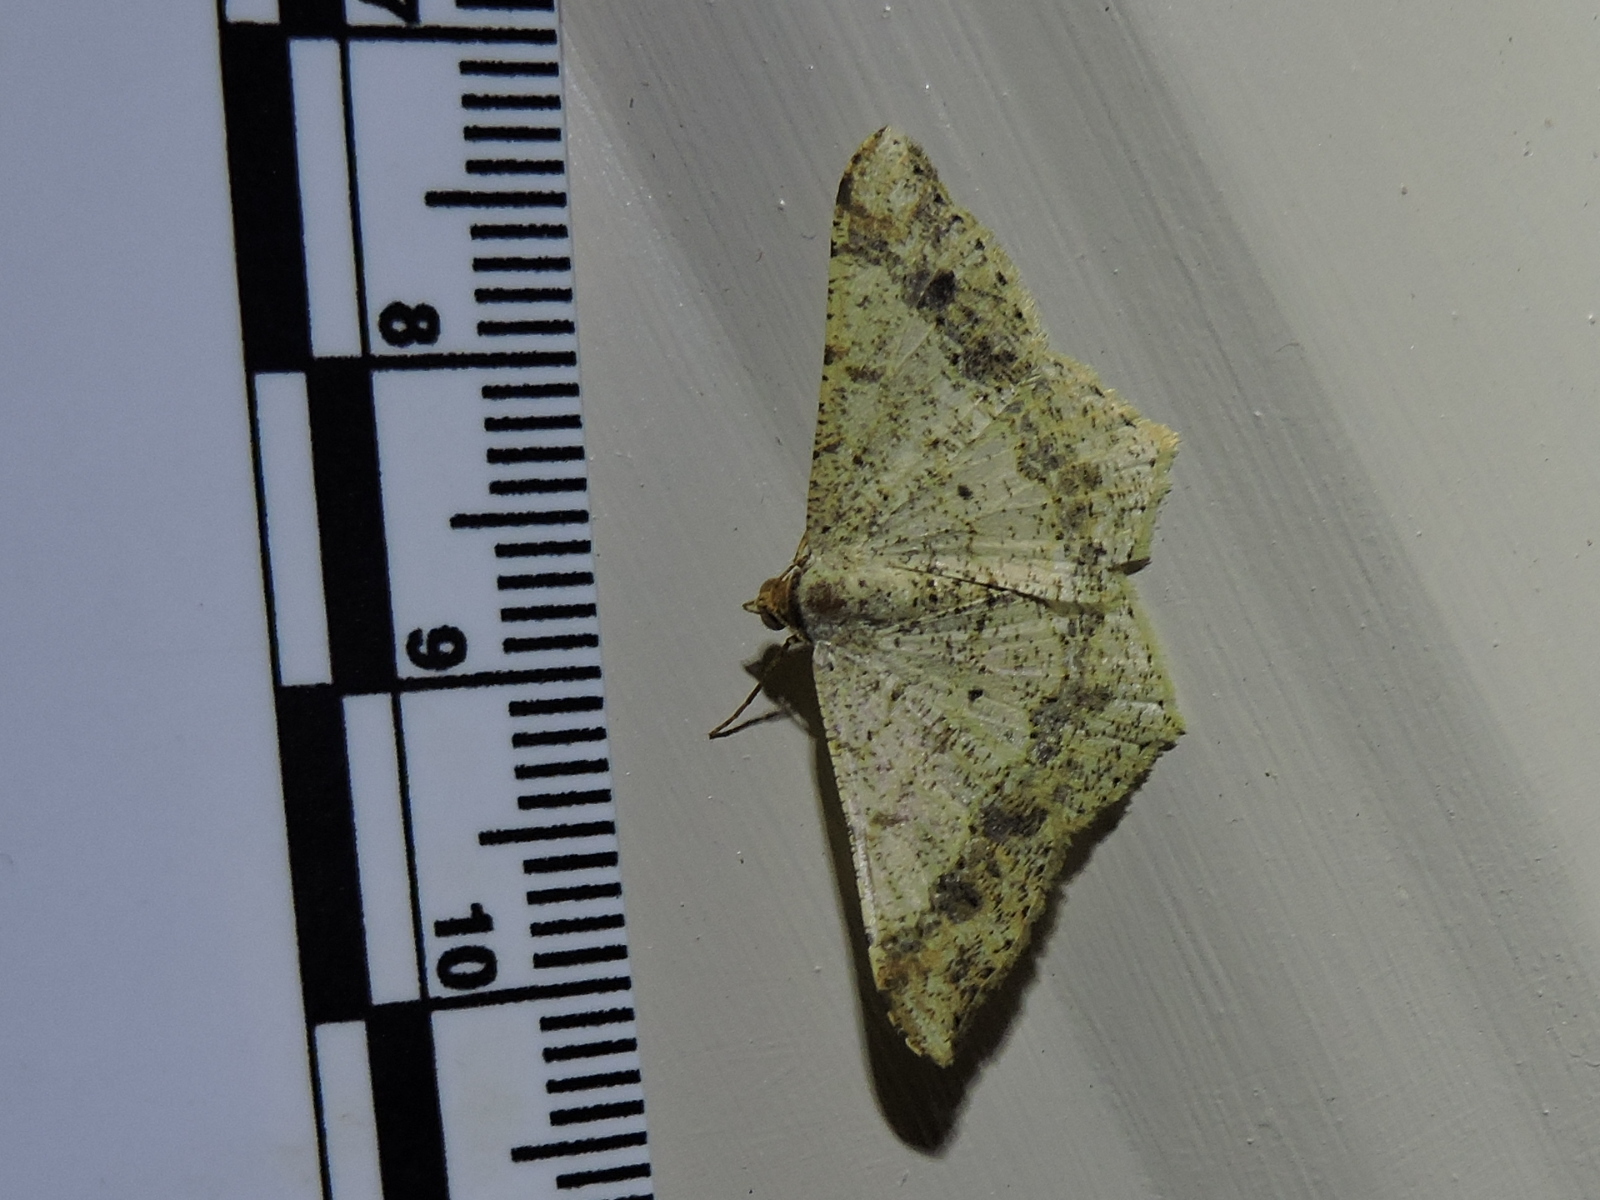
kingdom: Animalia
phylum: Arthropoda
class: Insecta
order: Lepidoptera
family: Geometridae
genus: Macaria
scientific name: Macaria abydata
